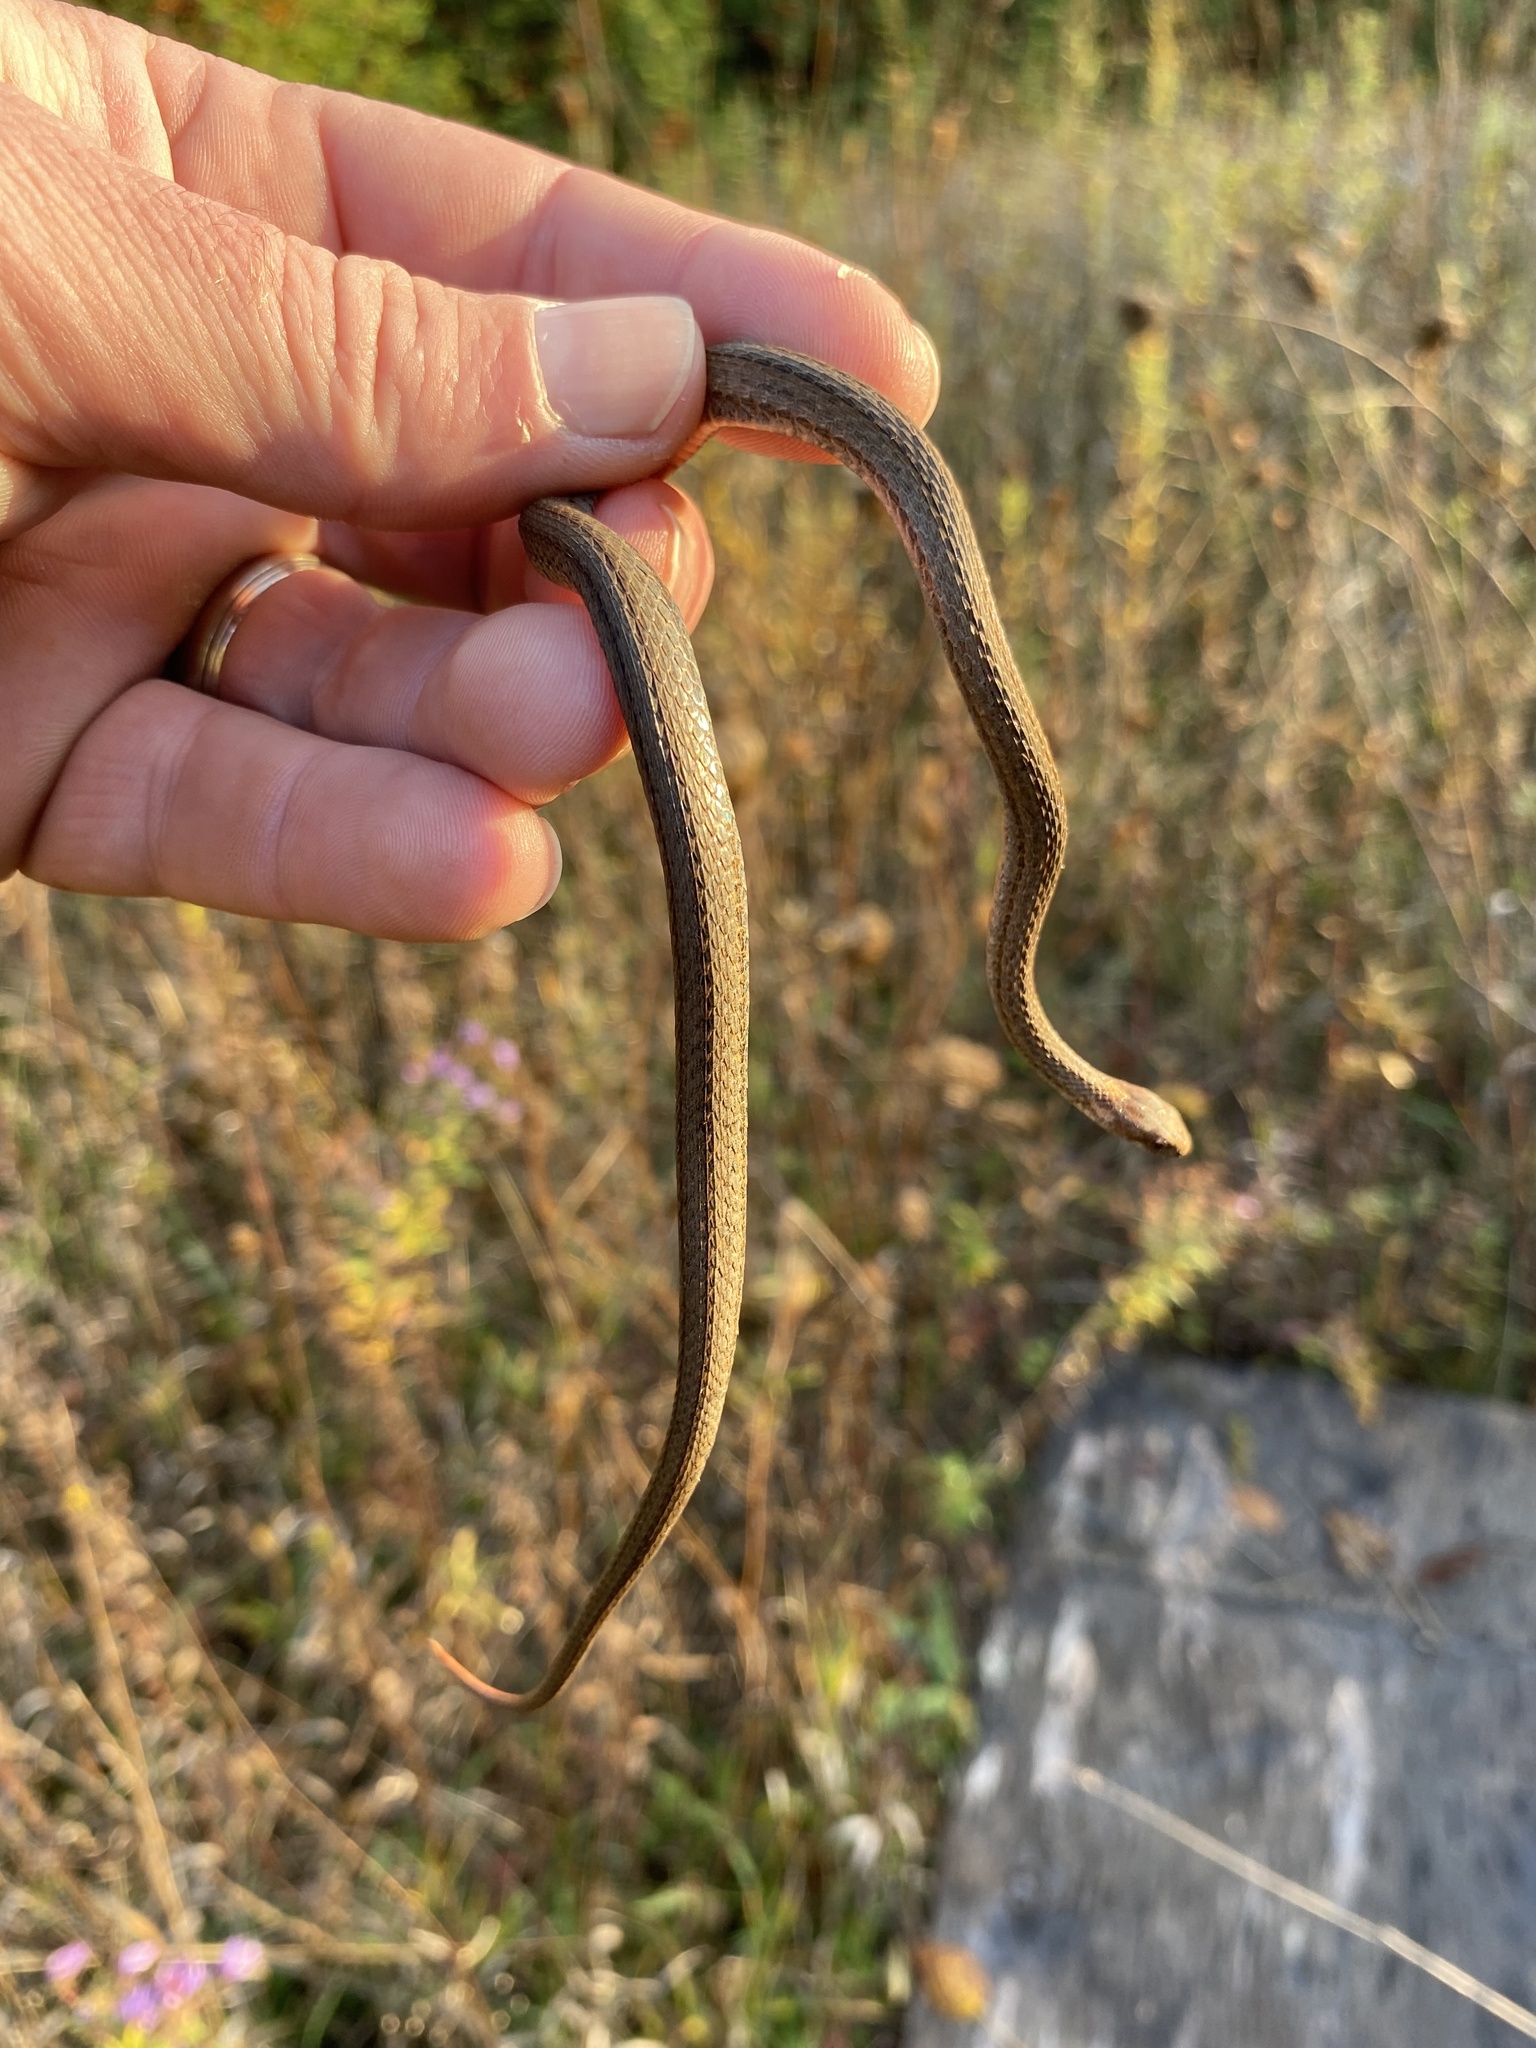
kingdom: Animalia
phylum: Chordata
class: Squamata
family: Colubridae
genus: Storeria
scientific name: Storeria occipitomaculata
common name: Redbelly snake
